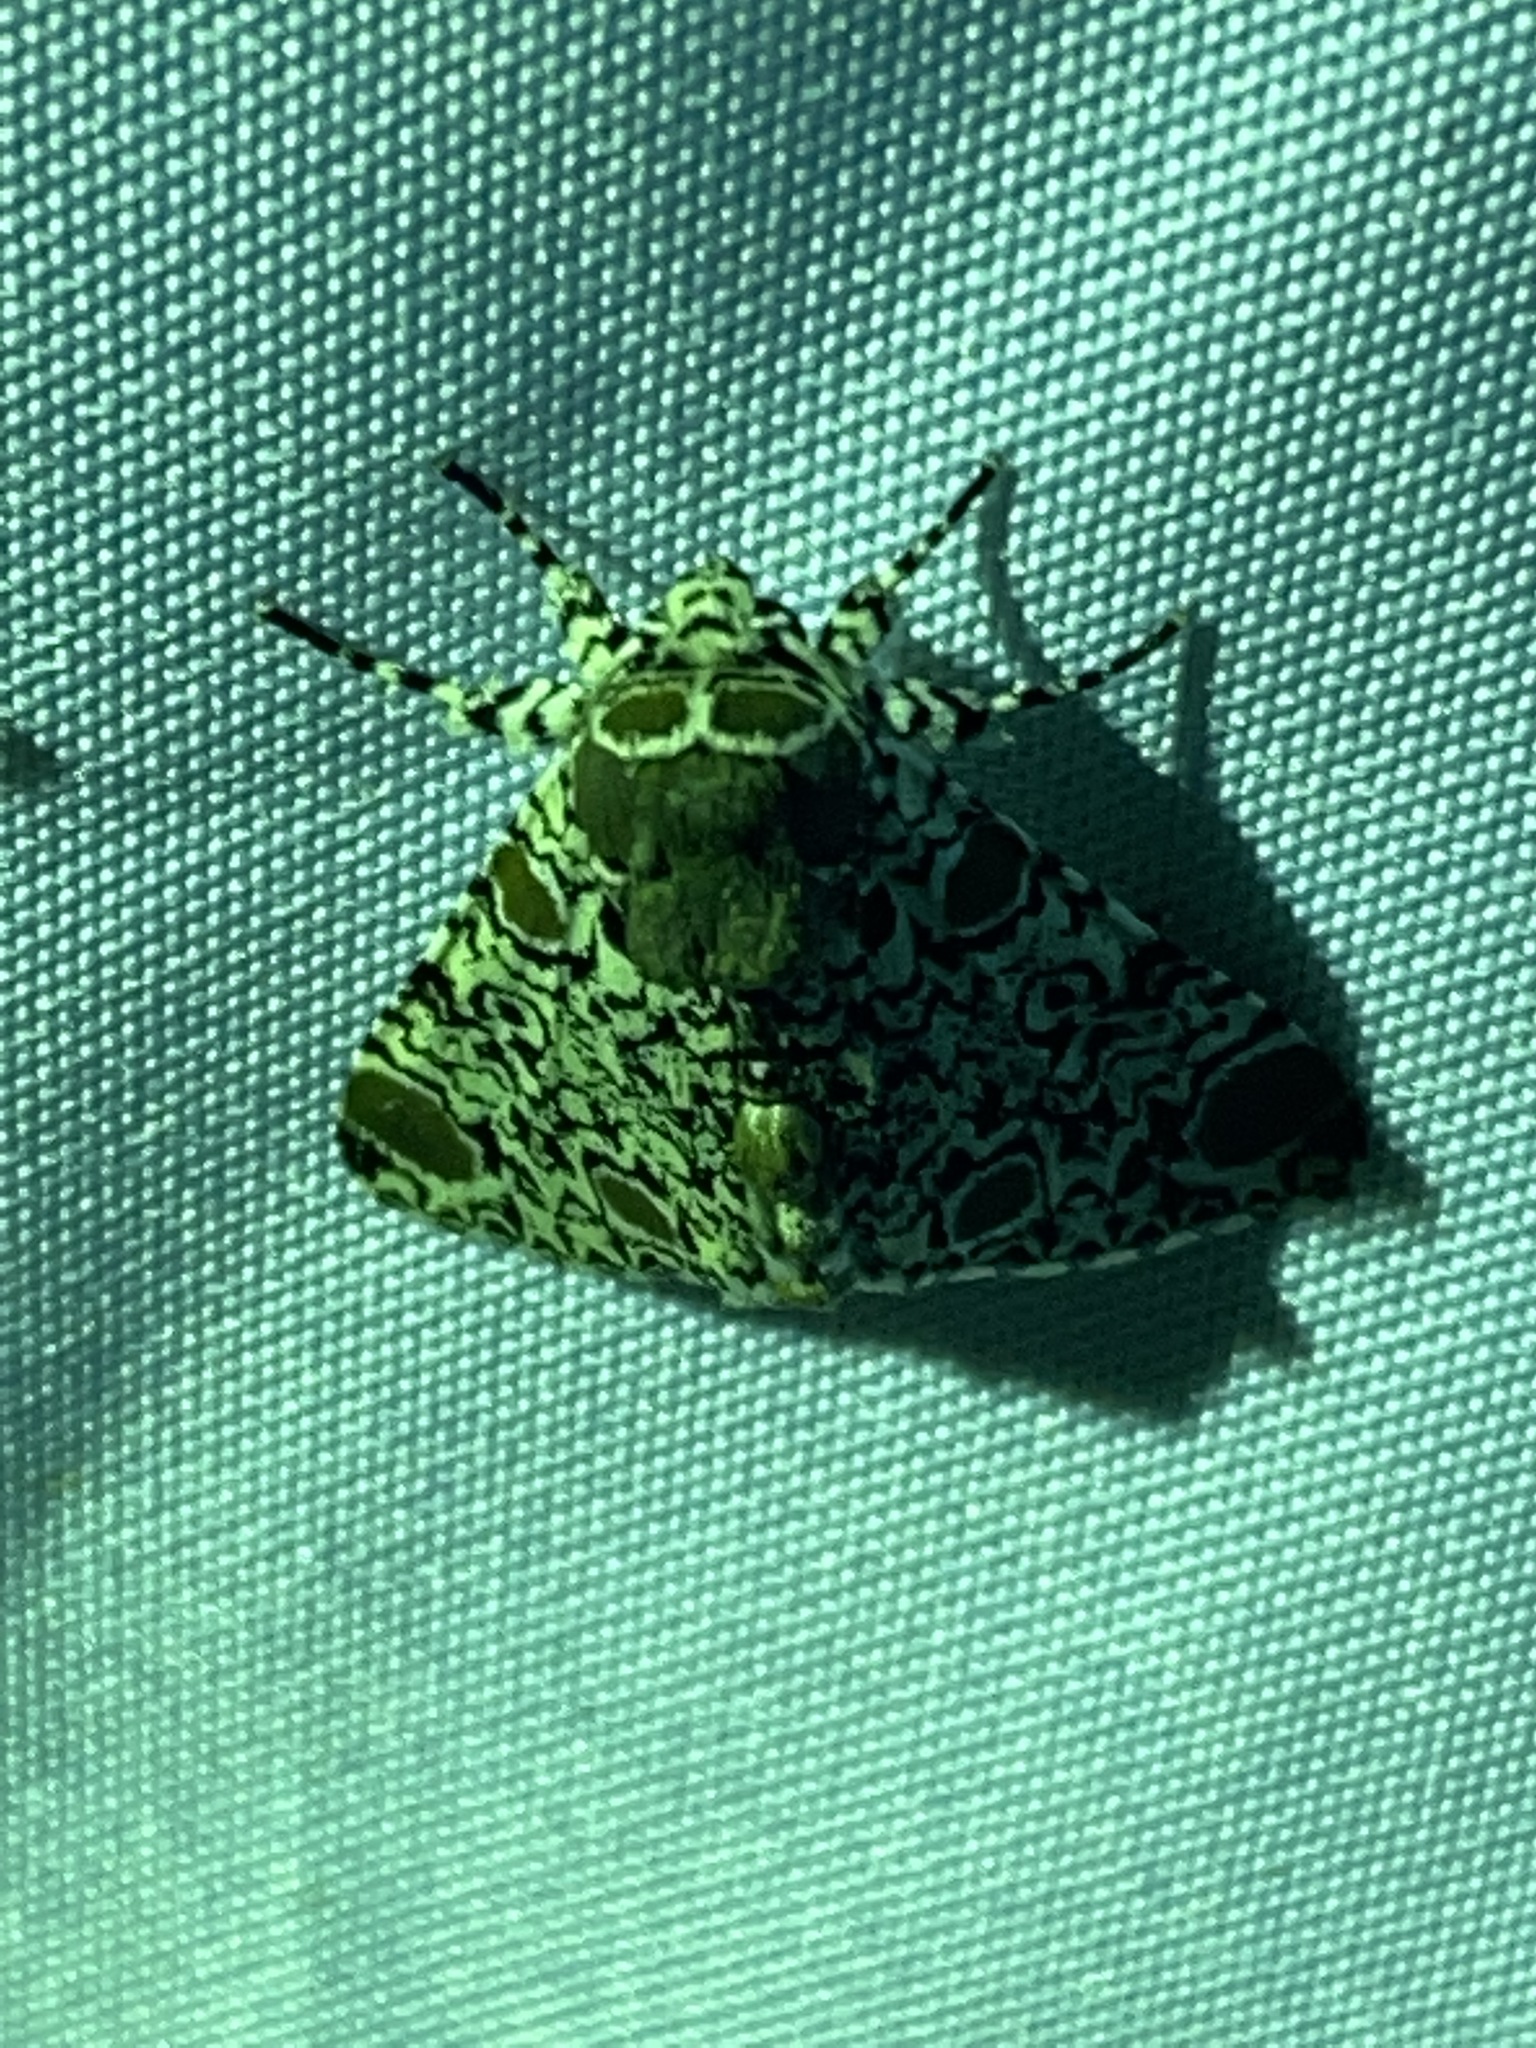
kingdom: Animalia
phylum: Arthropoda
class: Insecta
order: Lepidoptera
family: Noctuidae
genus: Harrisimemna
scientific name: Harrisimemna trisignata
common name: Harris threespot
